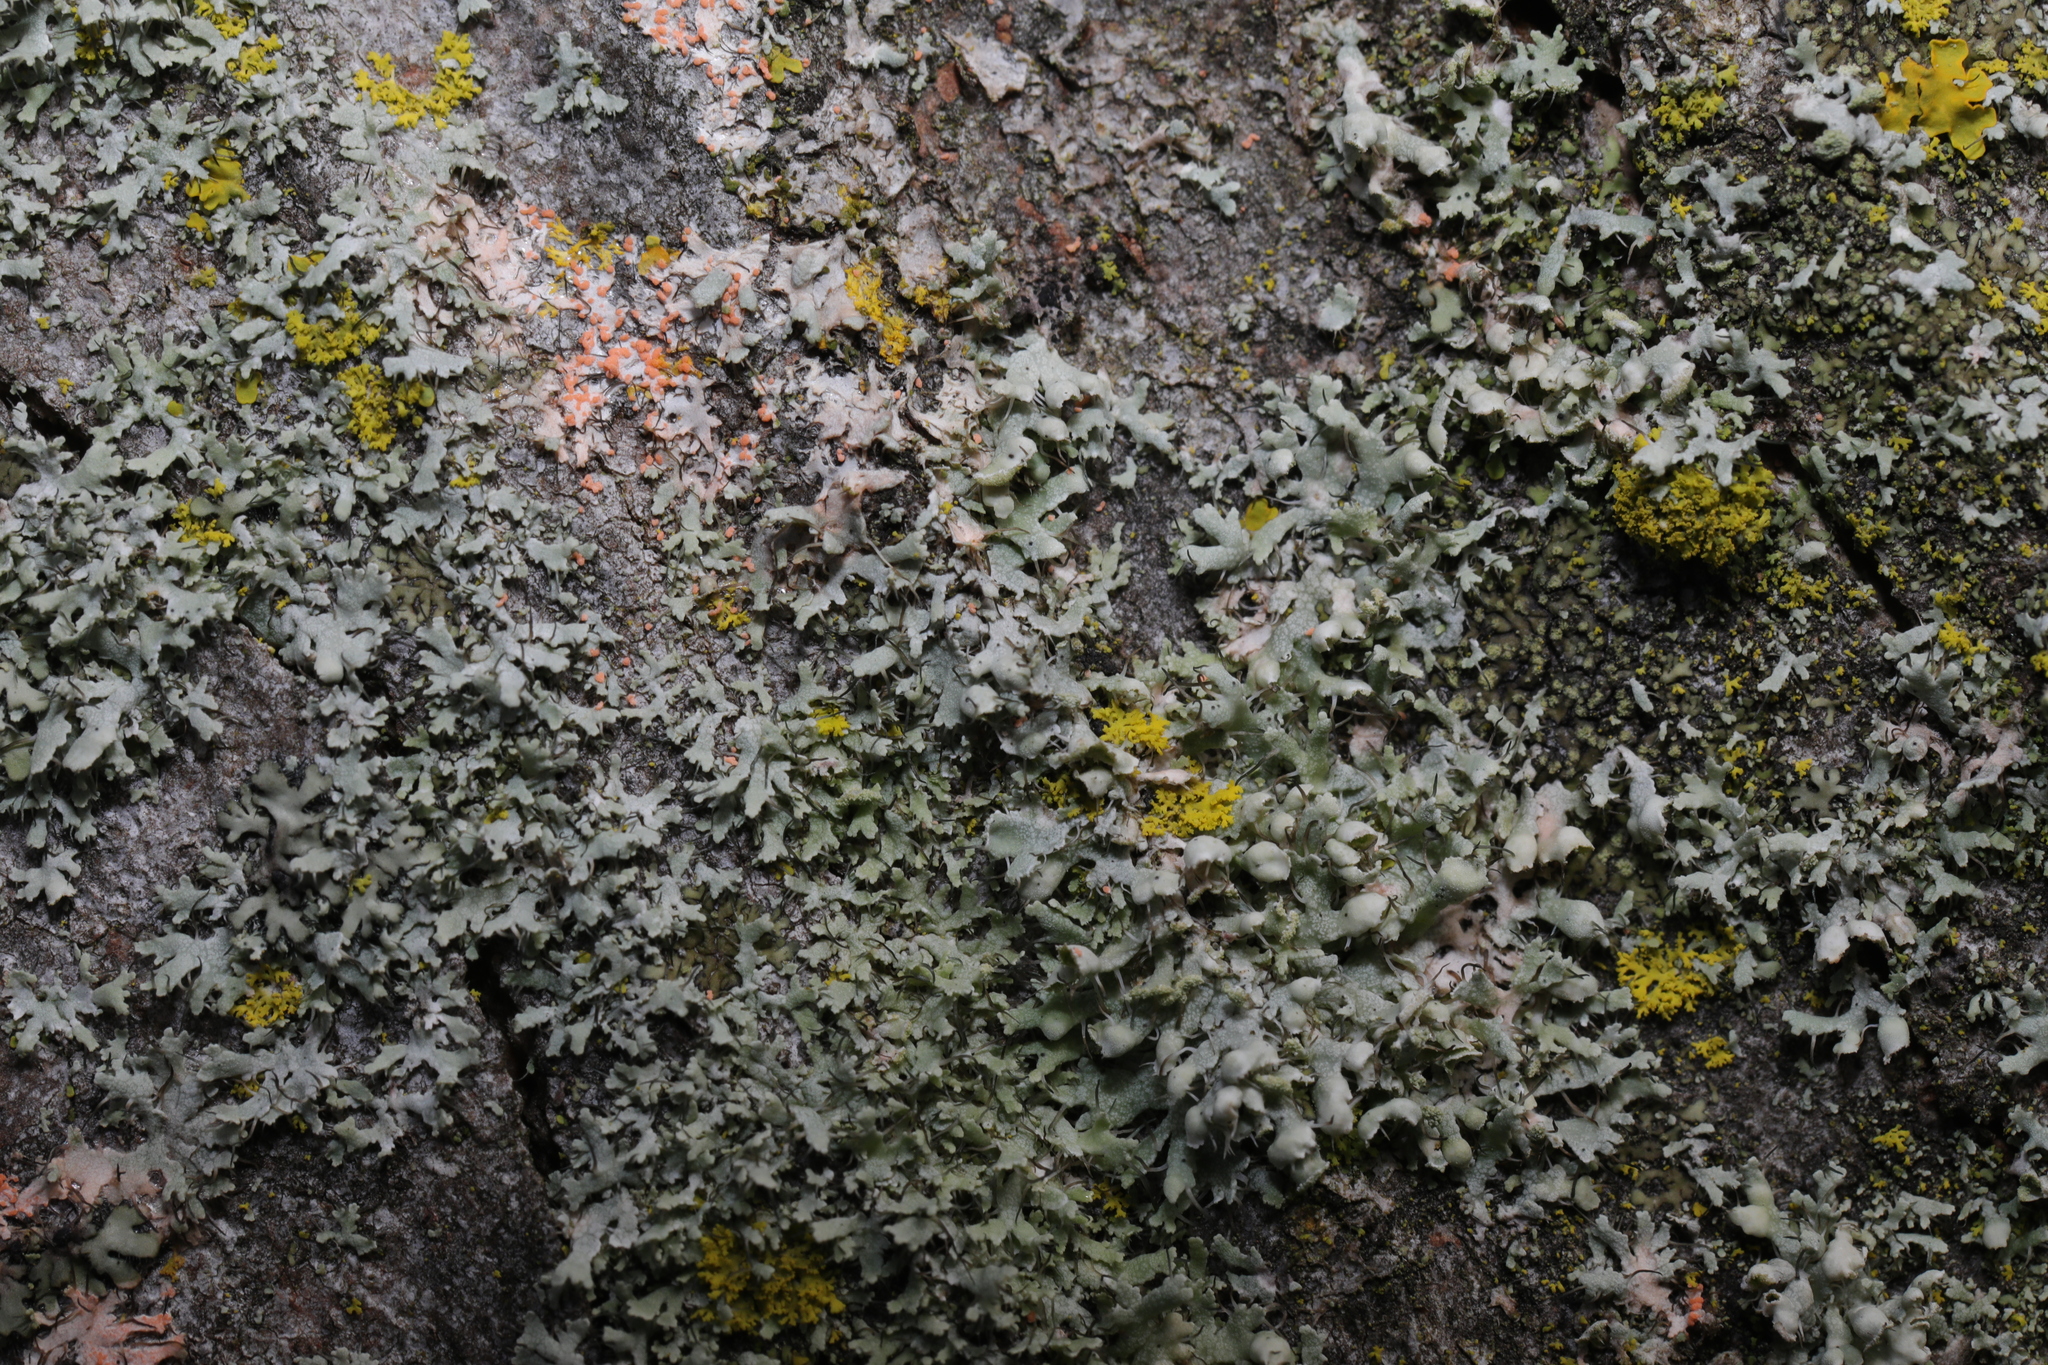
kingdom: Fungi
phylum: Ascomycota
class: Lecanoromycetes
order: Caliciales
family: Physciaceae
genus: Physcia
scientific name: Physcia adscendens
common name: Hooded rosette lichen
